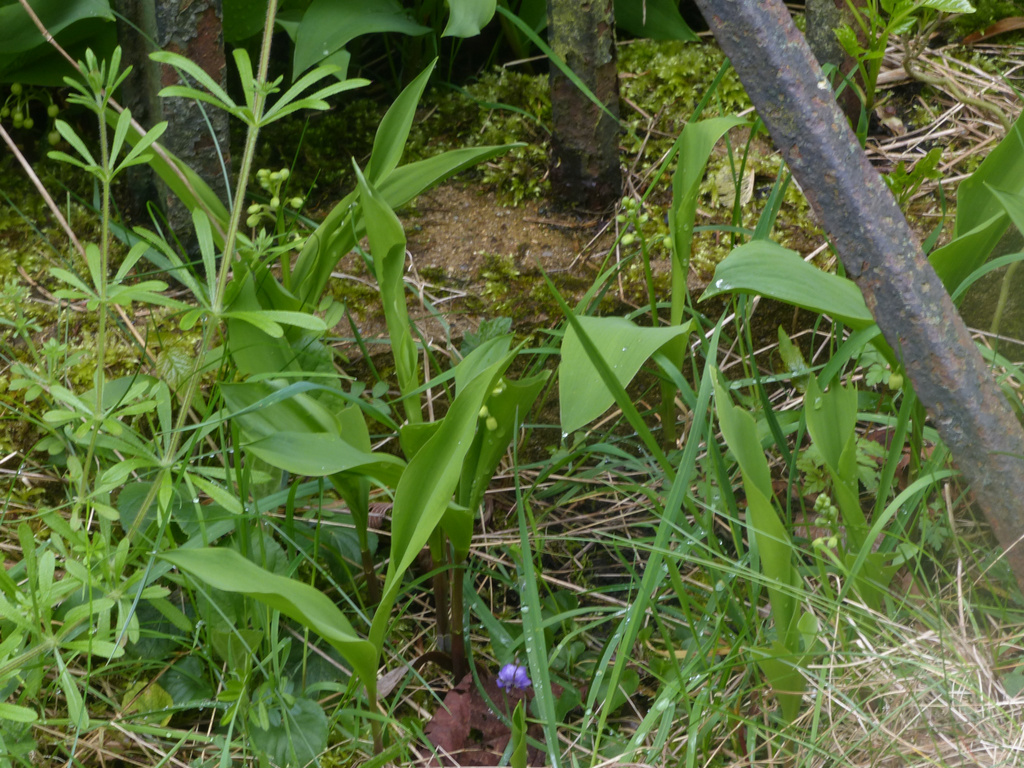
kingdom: Plantae
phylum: Tracheophyta
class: Liliopsida
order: Asparagales
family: Asparagaceae
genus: Convallaria
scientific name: Convallaria majalis
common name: Lily-of-the-valley
